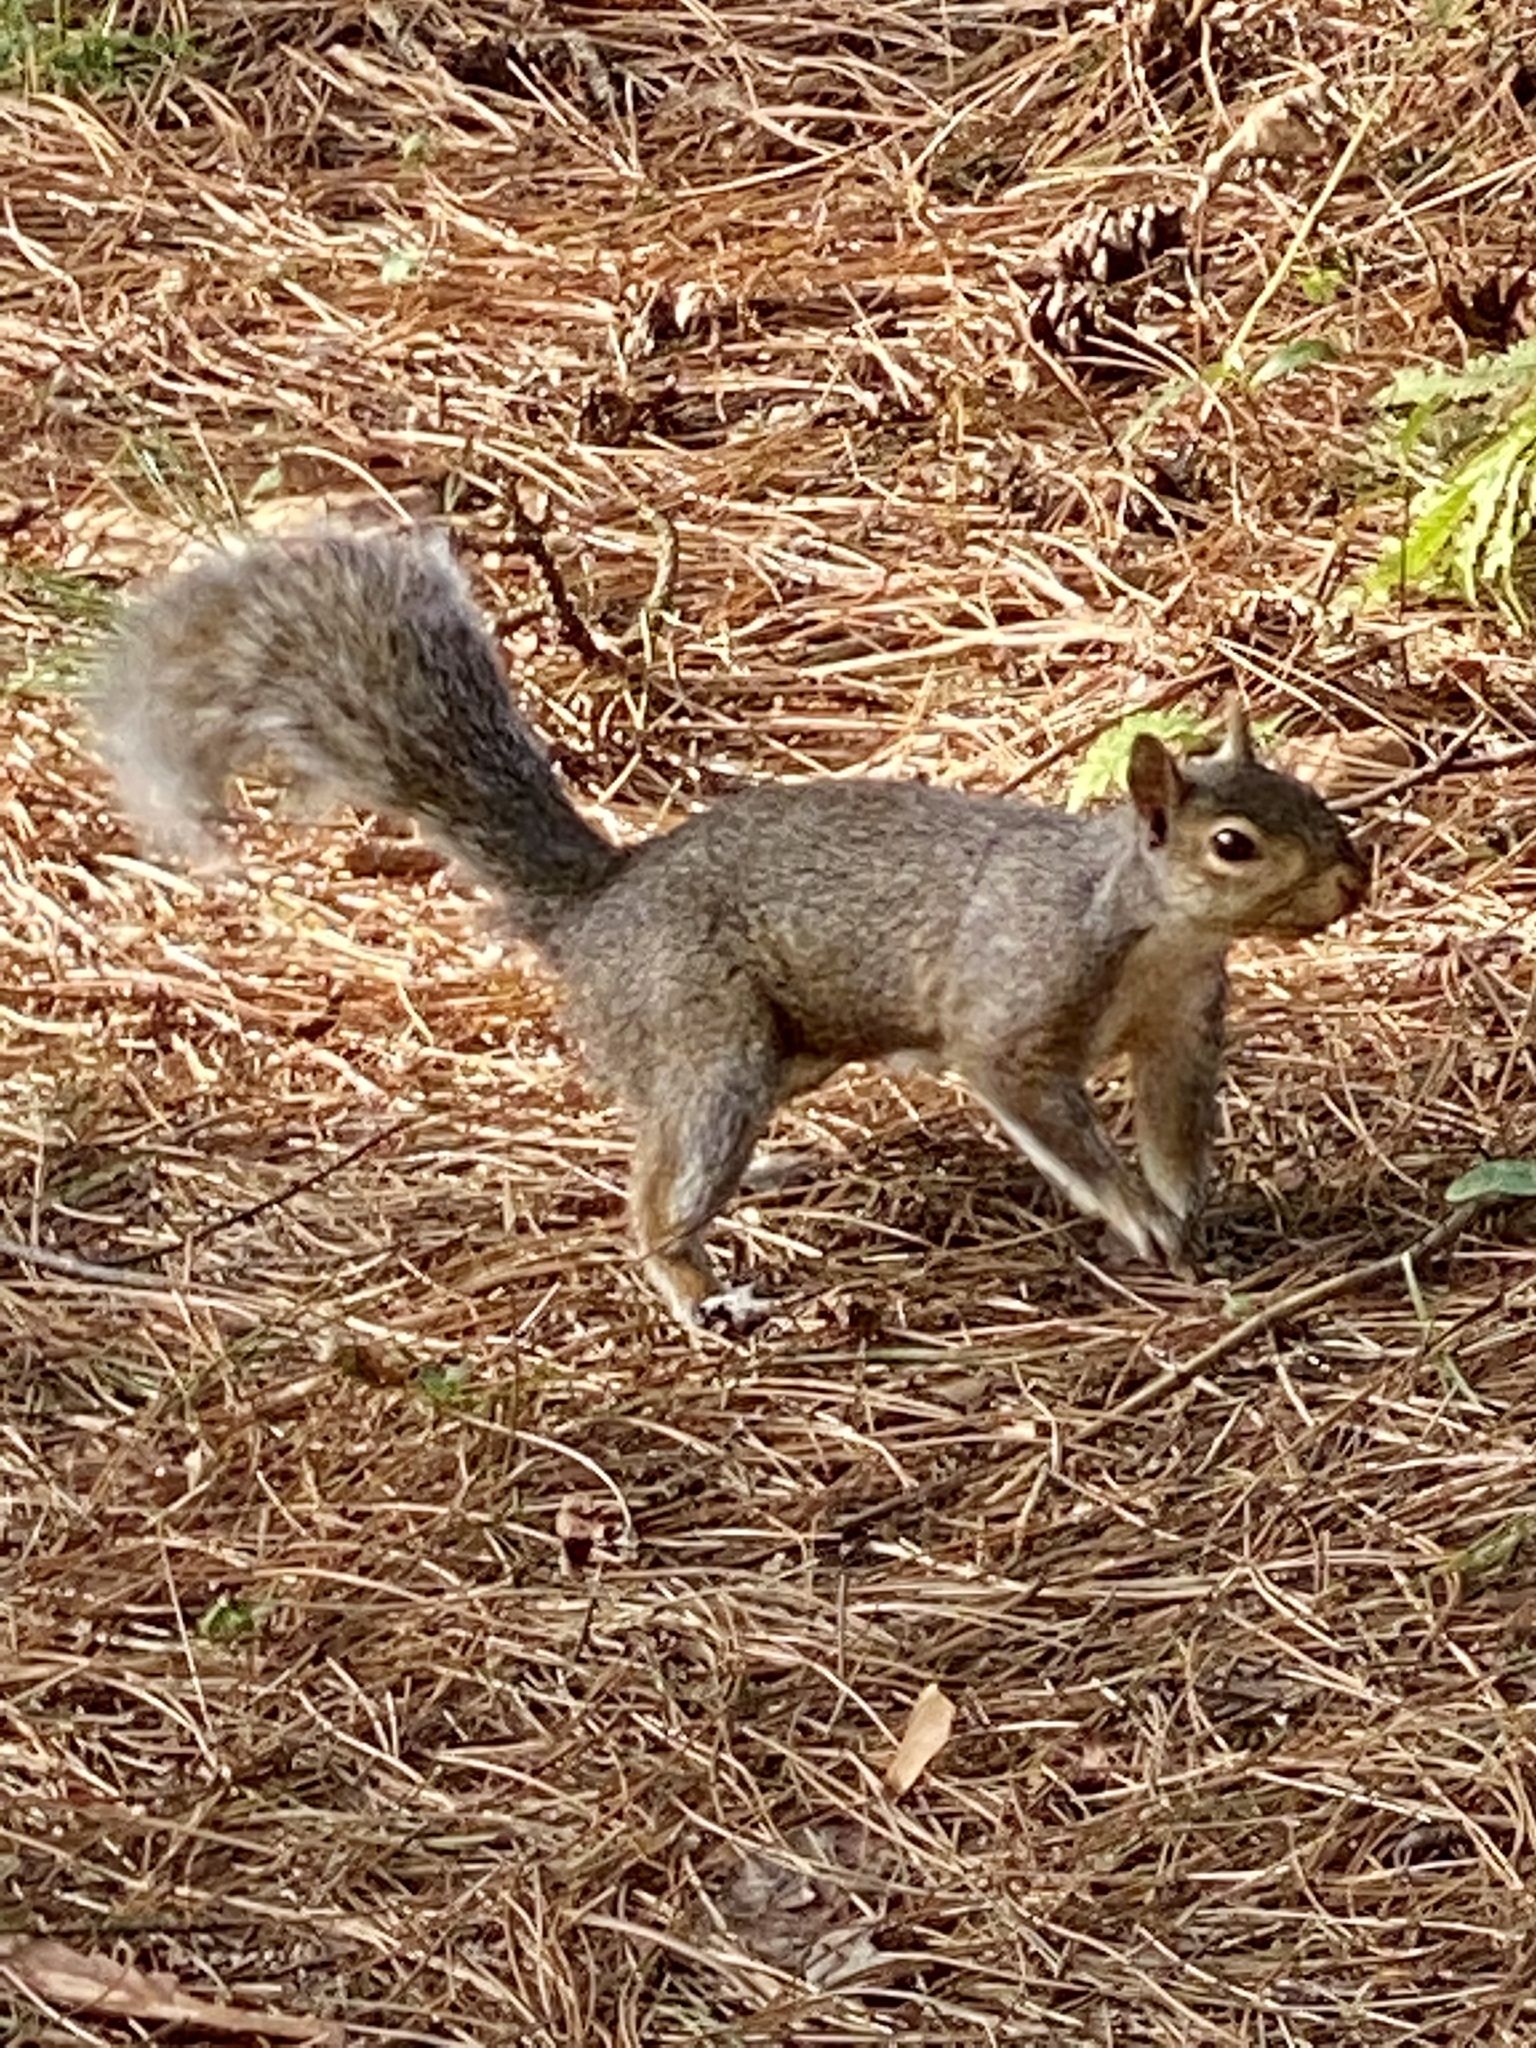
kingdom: Animalia
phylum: Chordata
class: Mammalia
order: Rodentia
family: Sciuridae
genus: Sciurus
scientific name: Sciurus carolinensis
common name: Eastern gray squirrel
